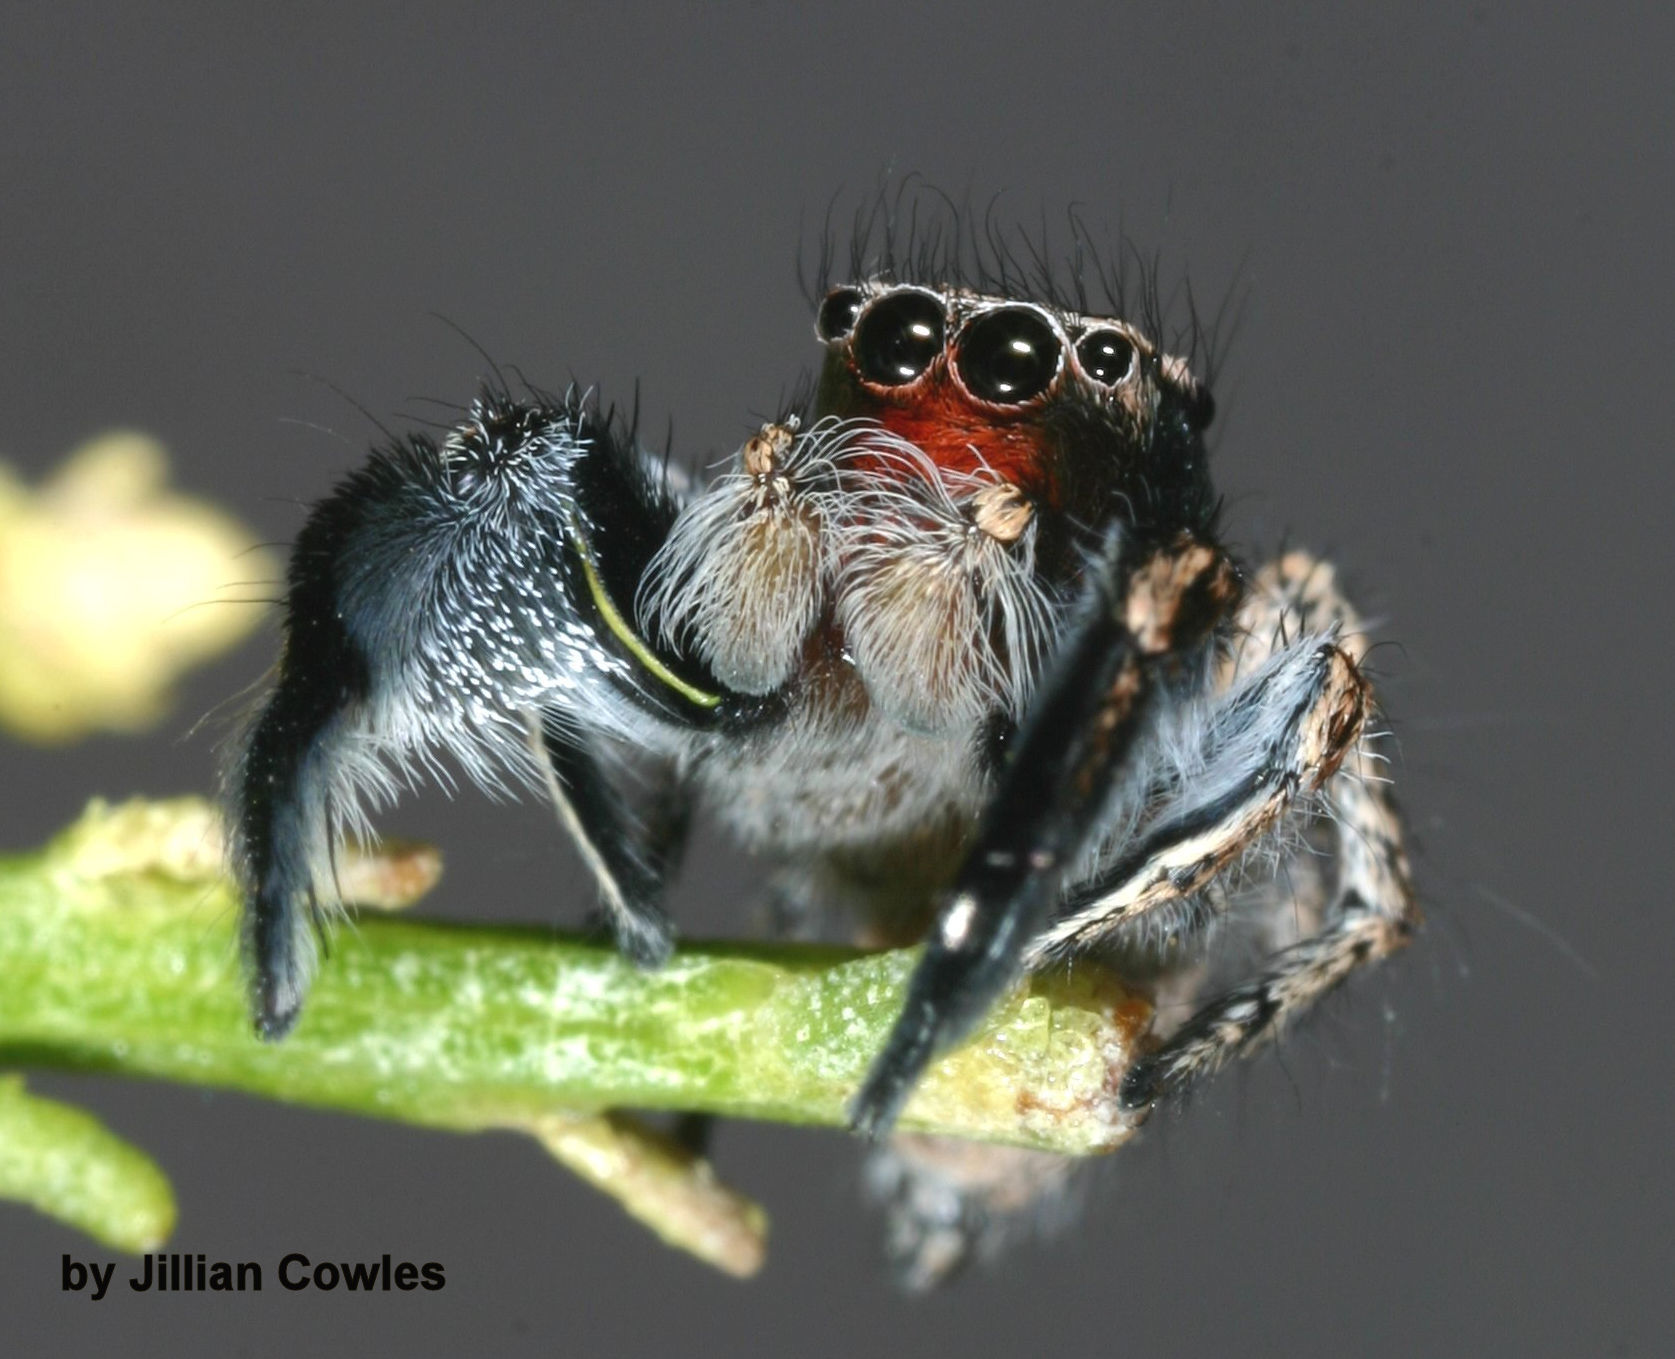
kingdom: Animalia
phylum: Arthropoda
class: Arachnida
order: Araneae
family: Salticidae
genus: Habronattus
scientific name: Habronattus hirsutus
